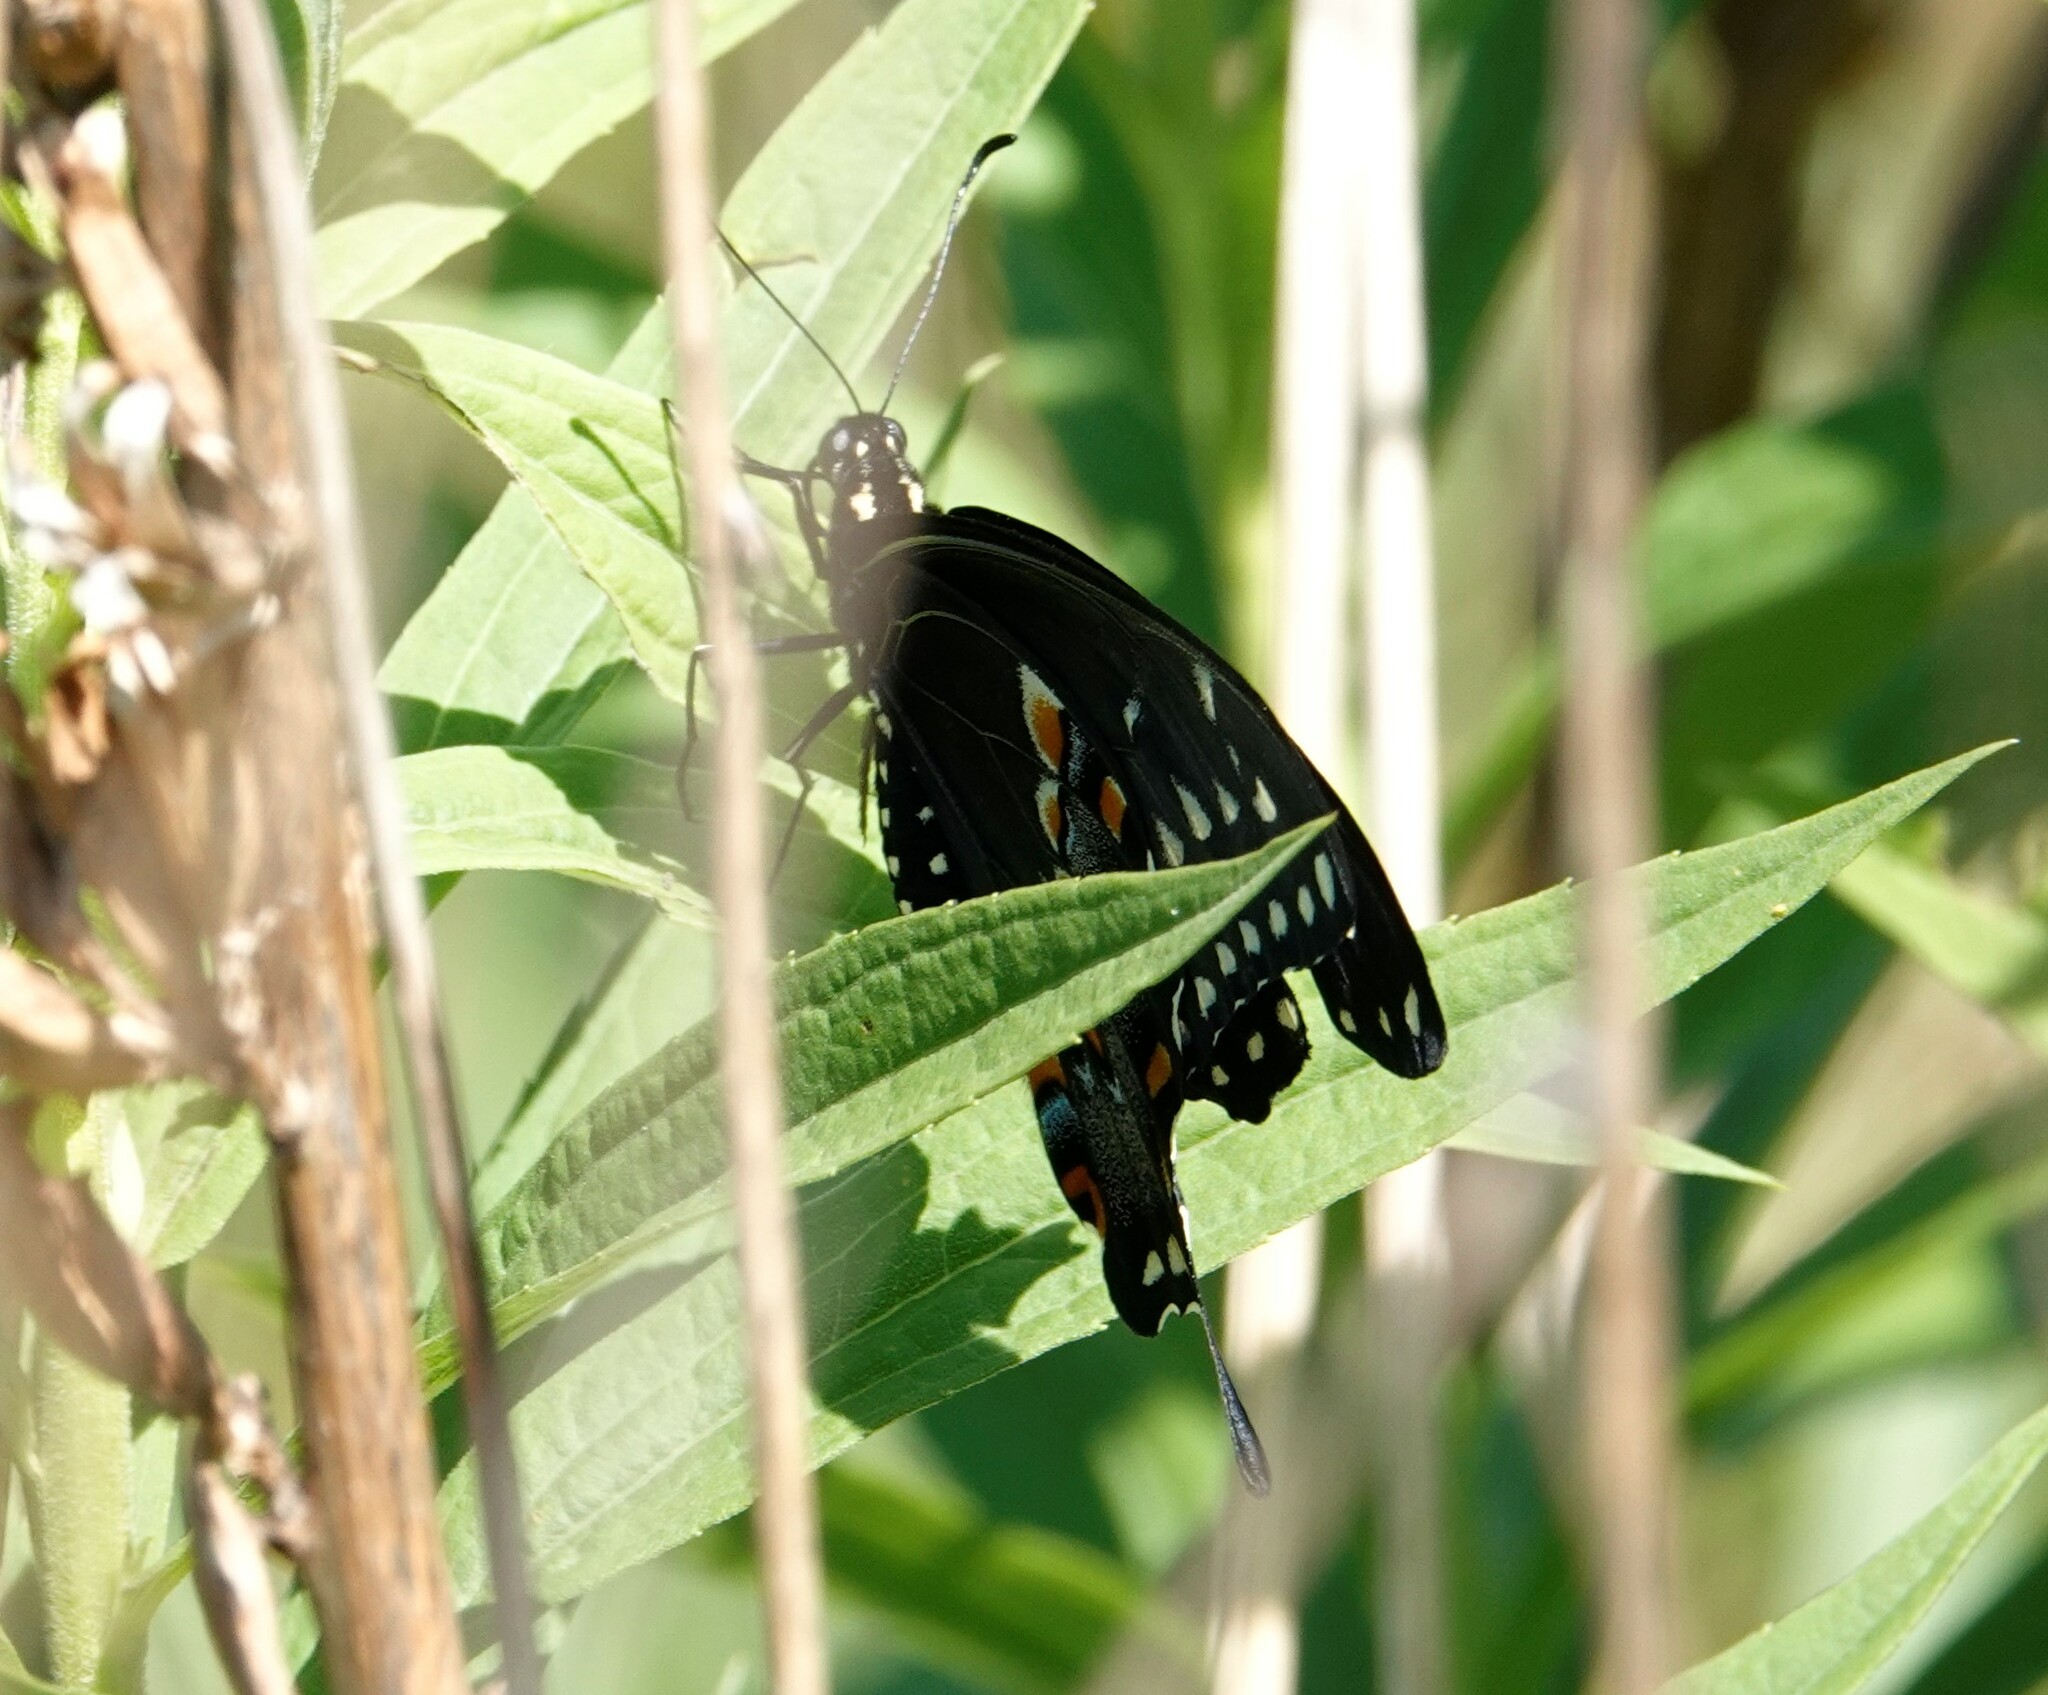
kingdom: Animalia
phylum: Arthropoda
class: Insecta
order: Lepidoptera
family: Papilionidae
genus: Papilio
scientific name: Papilio polyxenes
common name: Black swallowtail
